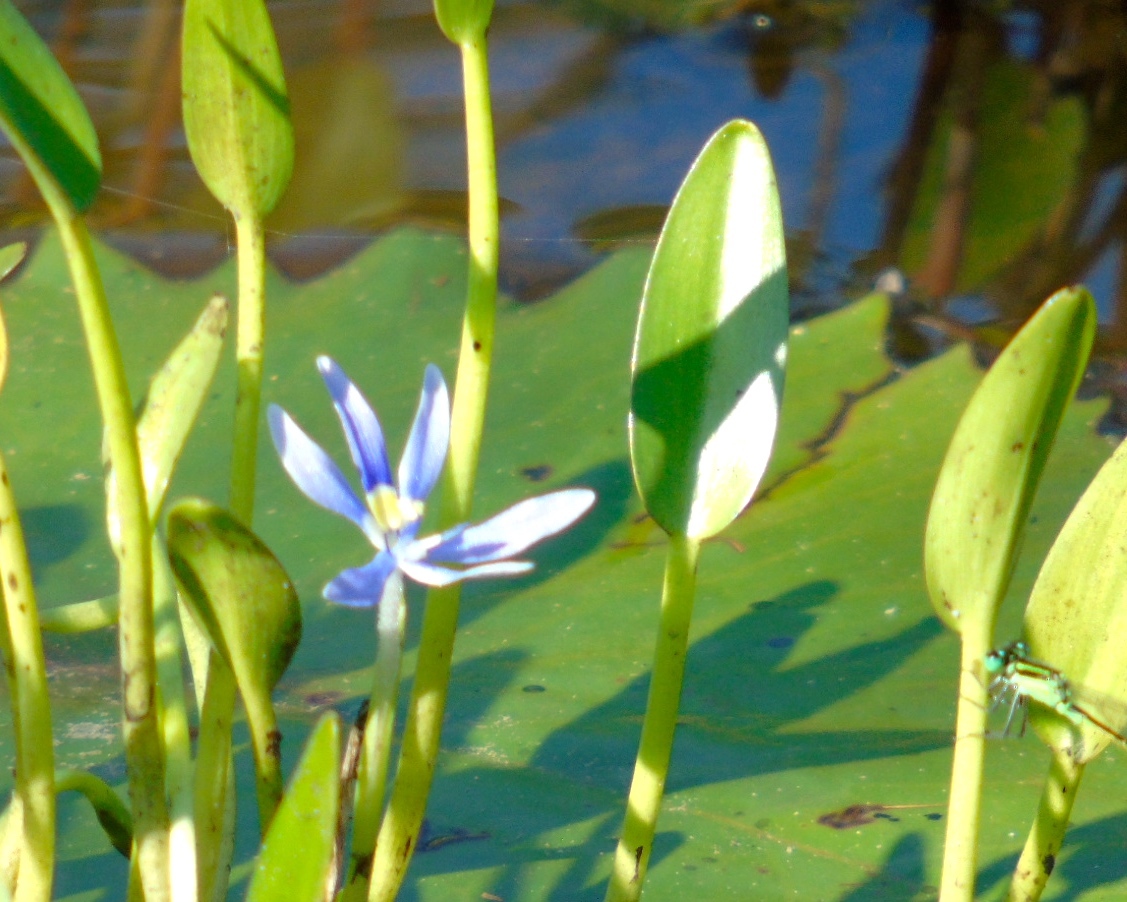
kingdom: Plantae
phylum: Tracheophyta
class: Liliopsida
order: Commelinales
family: Pontederiaceae
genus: Heteranthera
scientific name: Heteranthera limosa
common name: Blue mud-plantain
